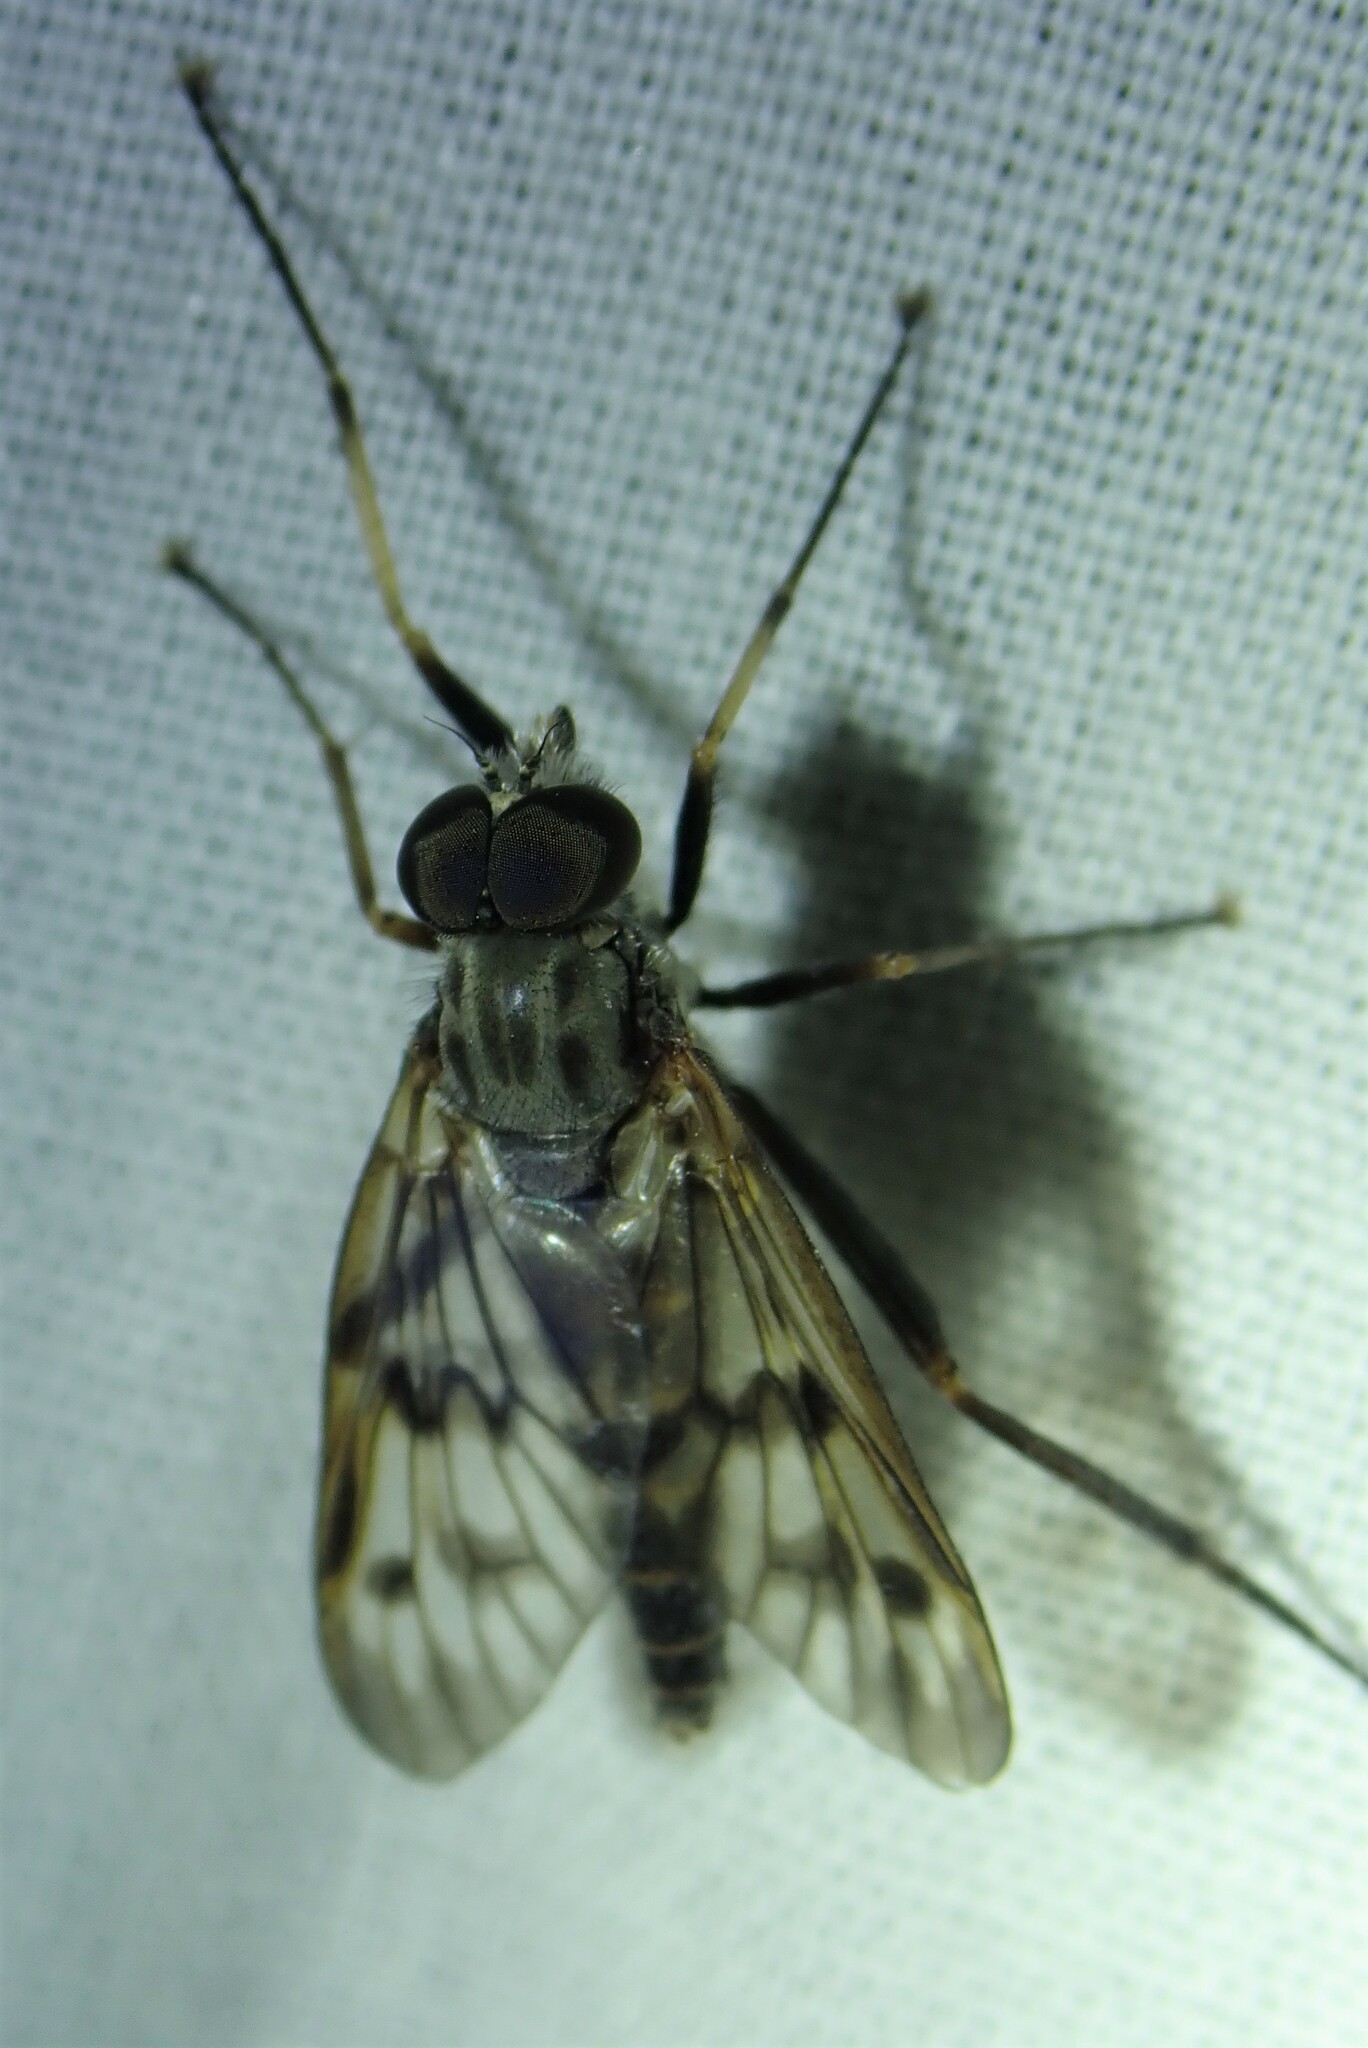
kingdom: Animalia
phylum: Arthropoda
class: Insecta
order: Diptera
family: Rhagionidae
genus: Rhagio
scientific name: Rhagio mystaceus
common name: Common snipe fly
